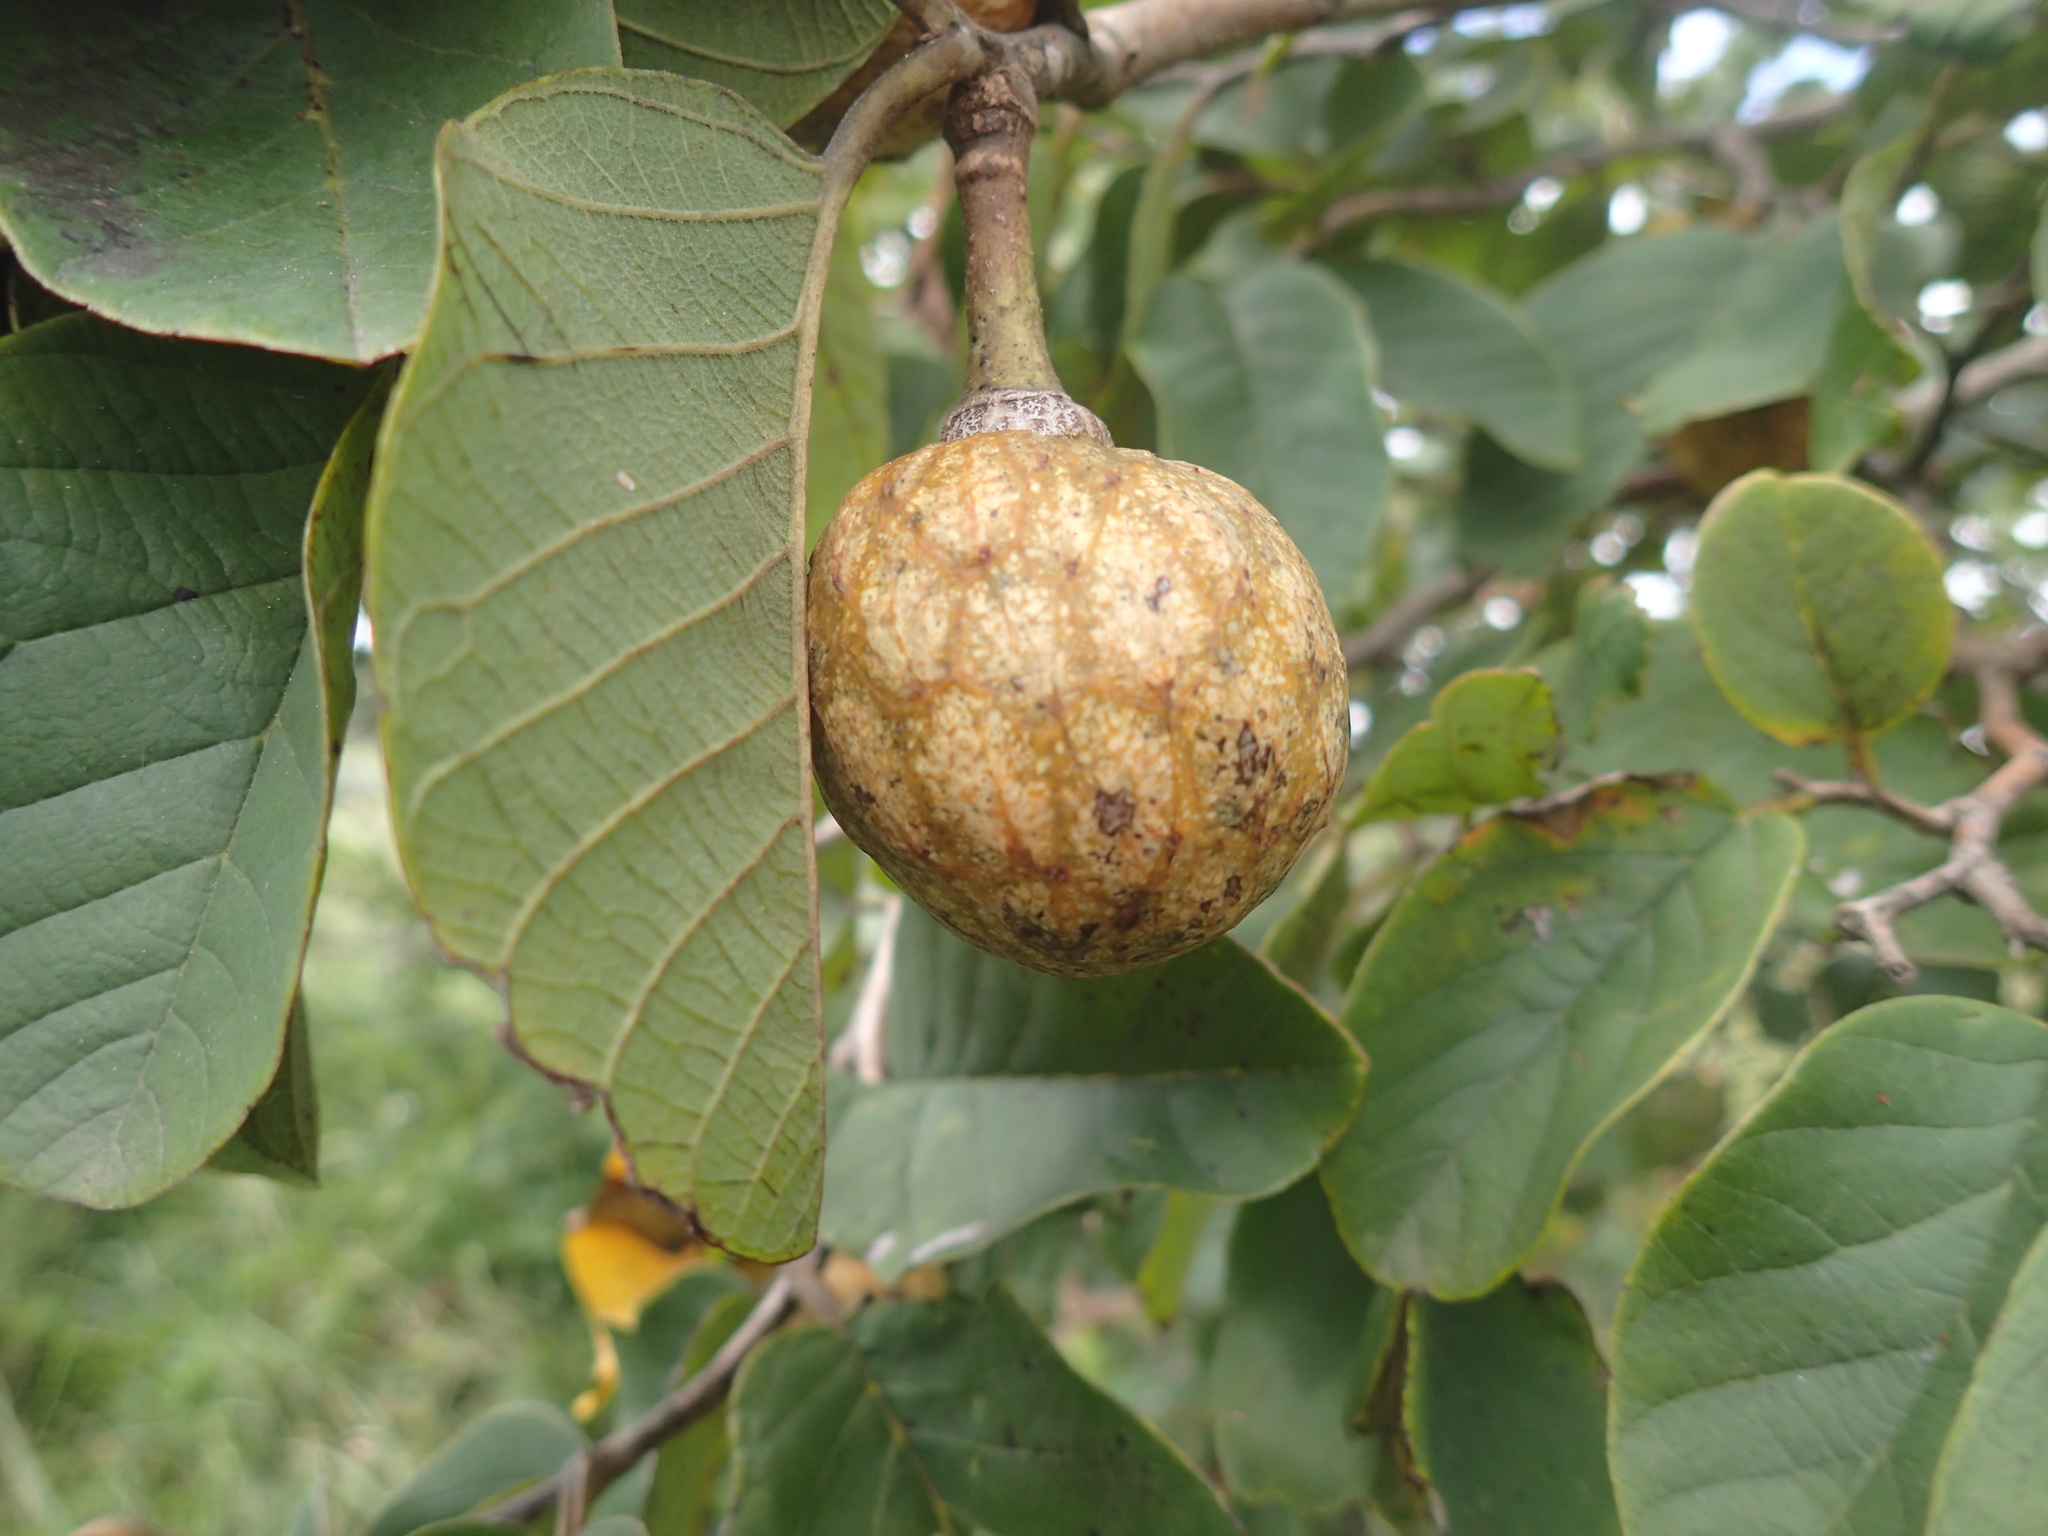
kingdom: Plantae
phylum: Tracheophyta
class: Magnoliopsida
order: Magnoliales
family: Annonaceae
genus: Annona
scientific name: Annona senegalensis
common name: Wild custard-apple
